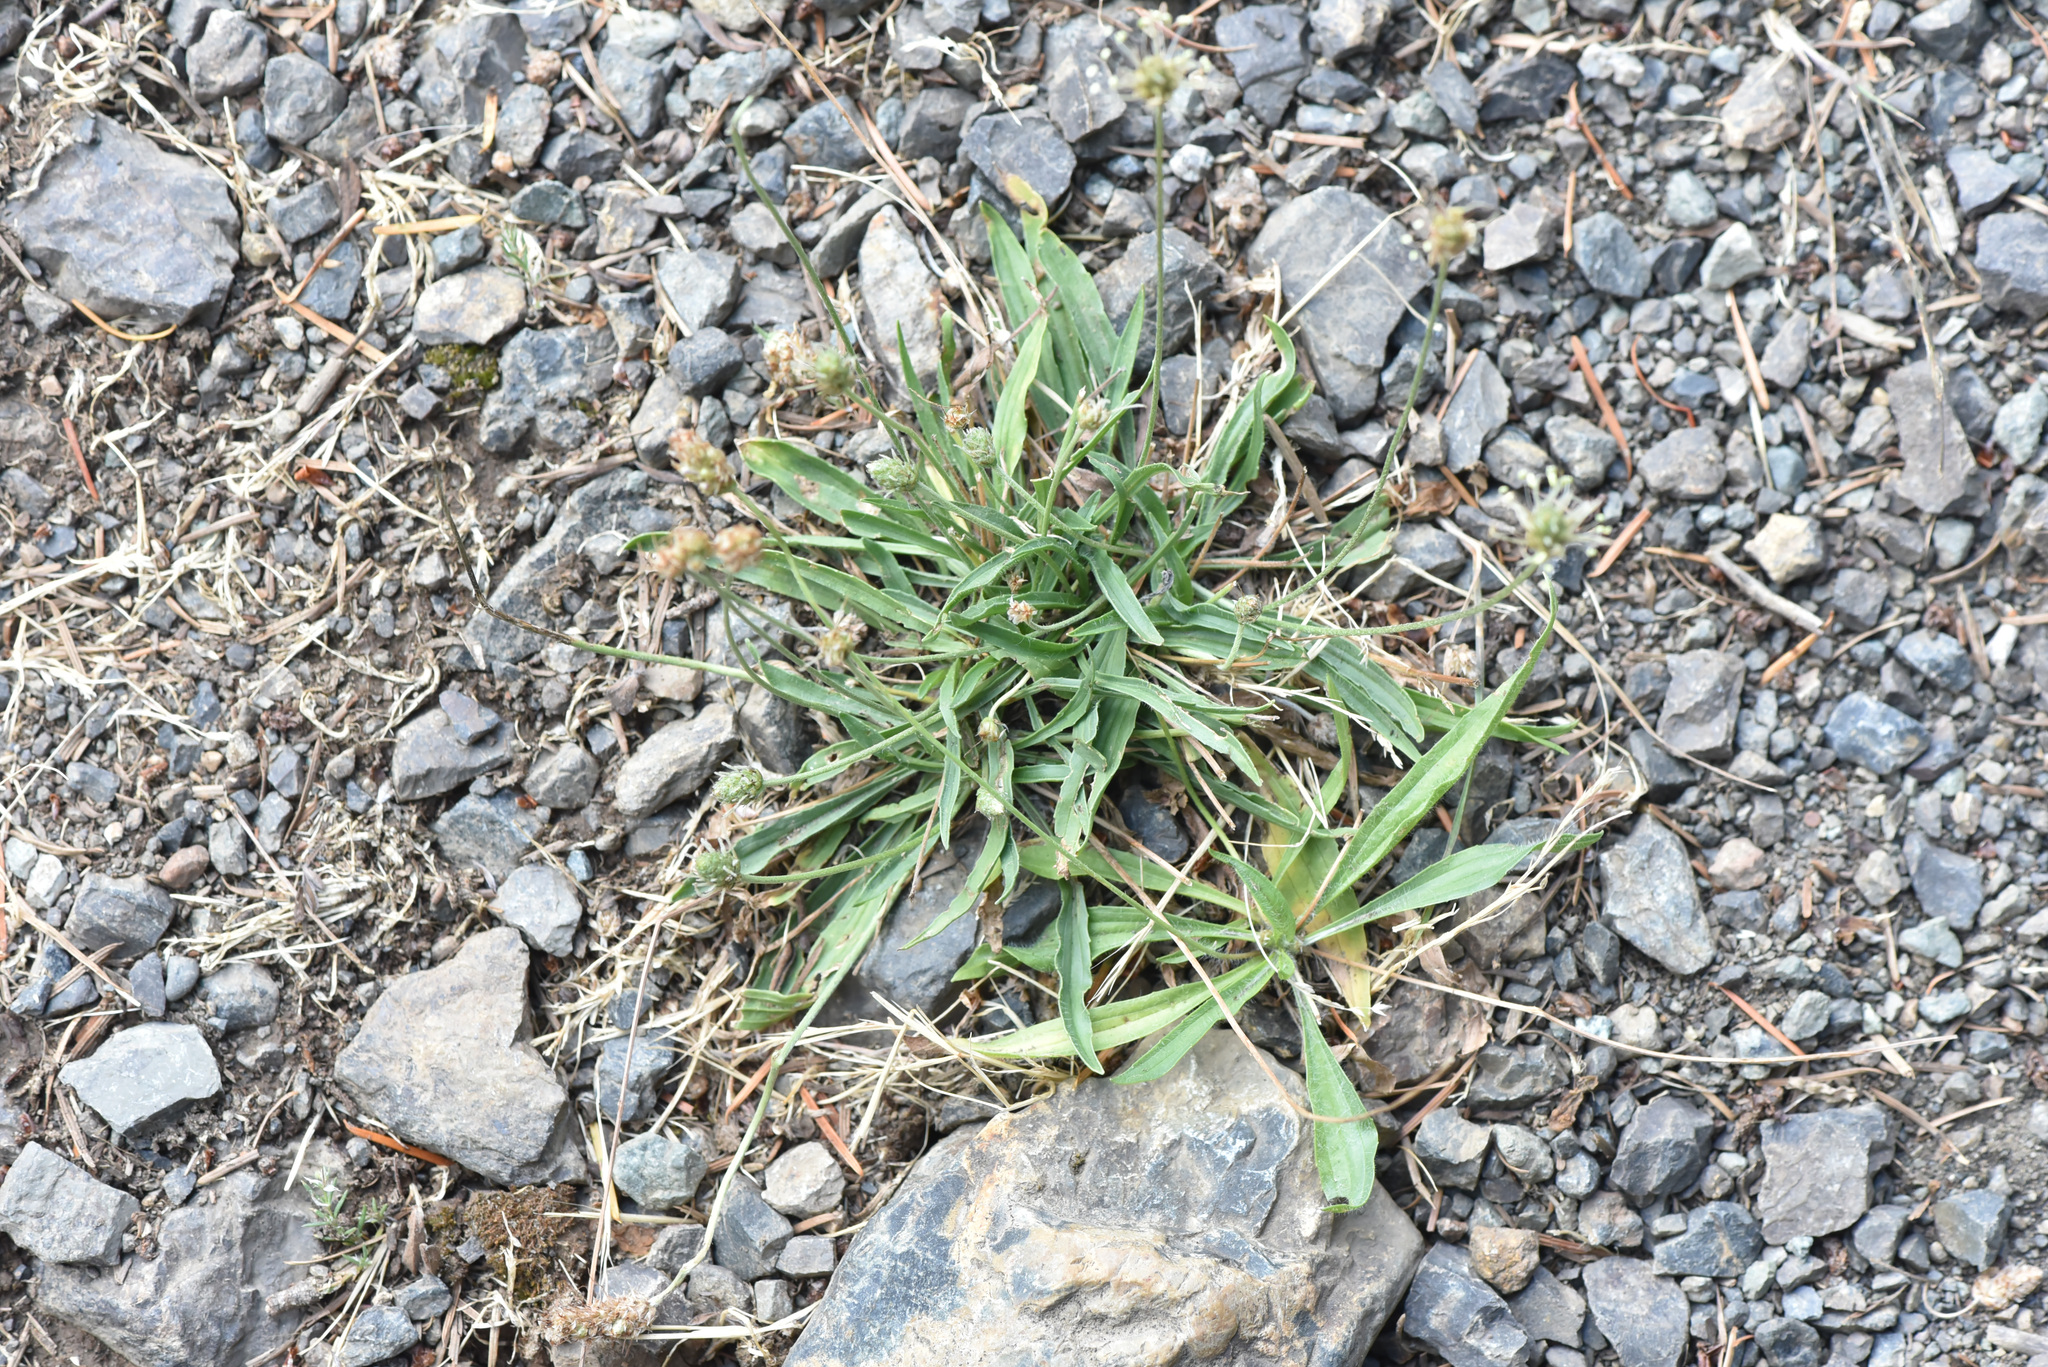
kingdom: Plantae
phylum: Tracheophyta
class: Magnoliopsida
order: Lamiales
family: Plantaginaceae
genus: Plantago
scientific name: Plantago lanceolata
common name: Ribwort plantain
